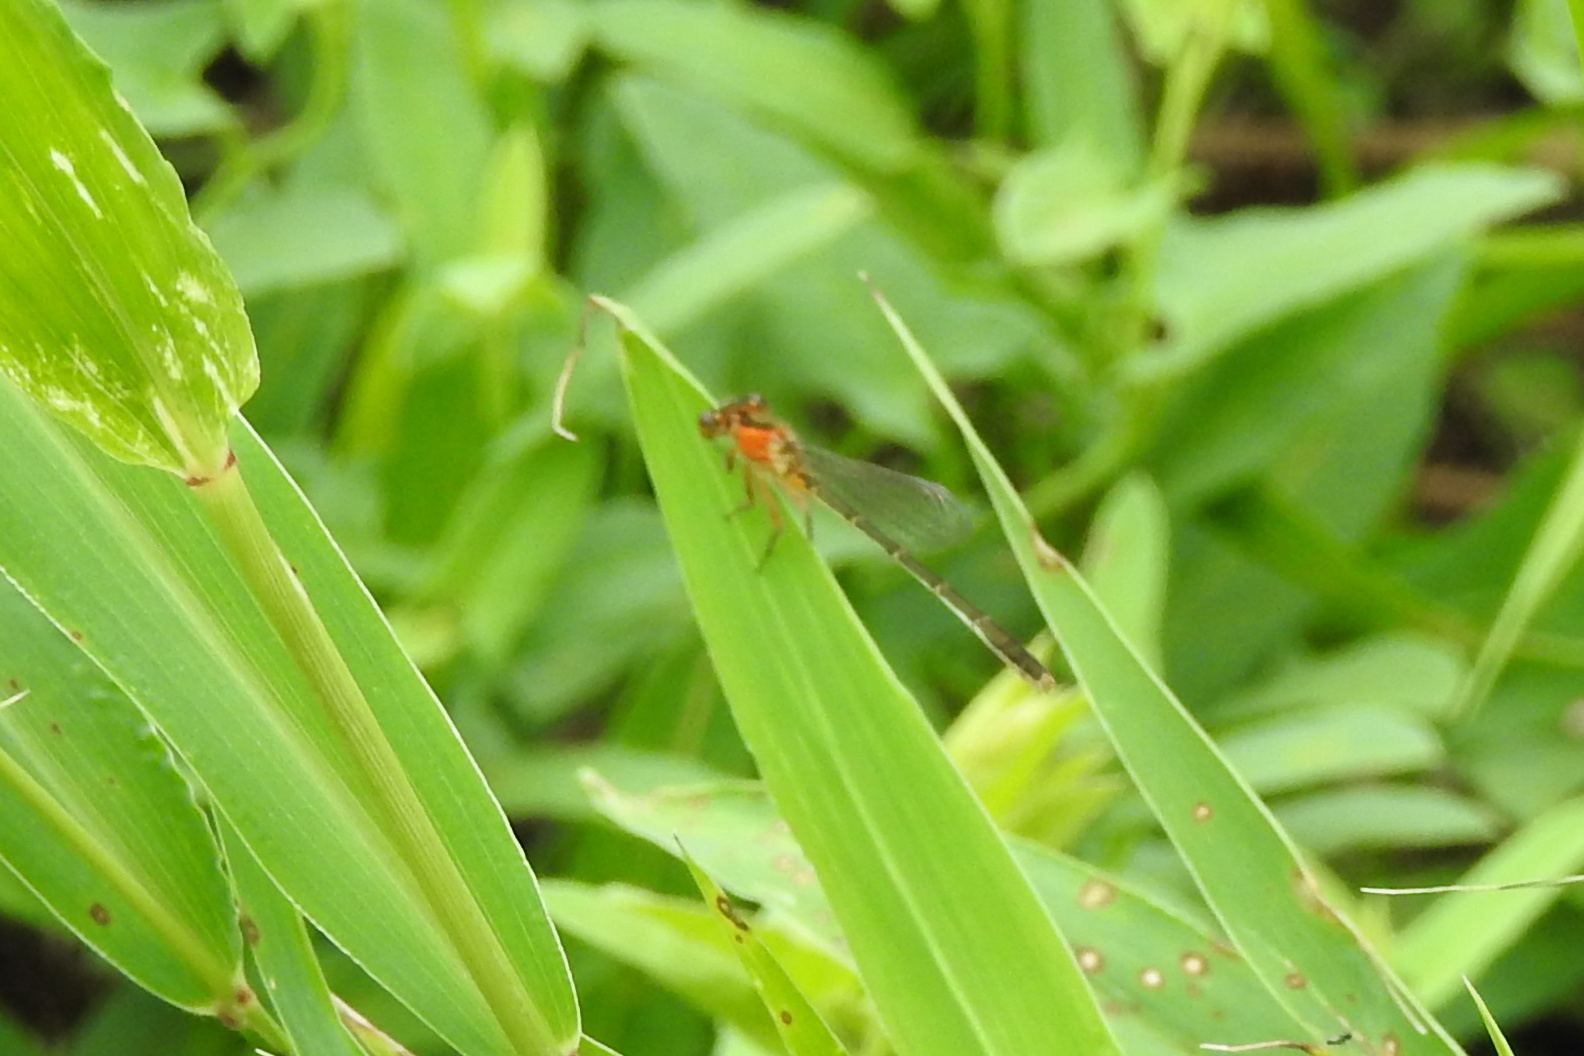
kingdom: Animalia
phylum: Arthropoda
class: Insecta
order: Odonata
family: Coenagrionidae
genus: Ischnura
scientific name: Ischnura ramburii
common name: Rambur's forktail
